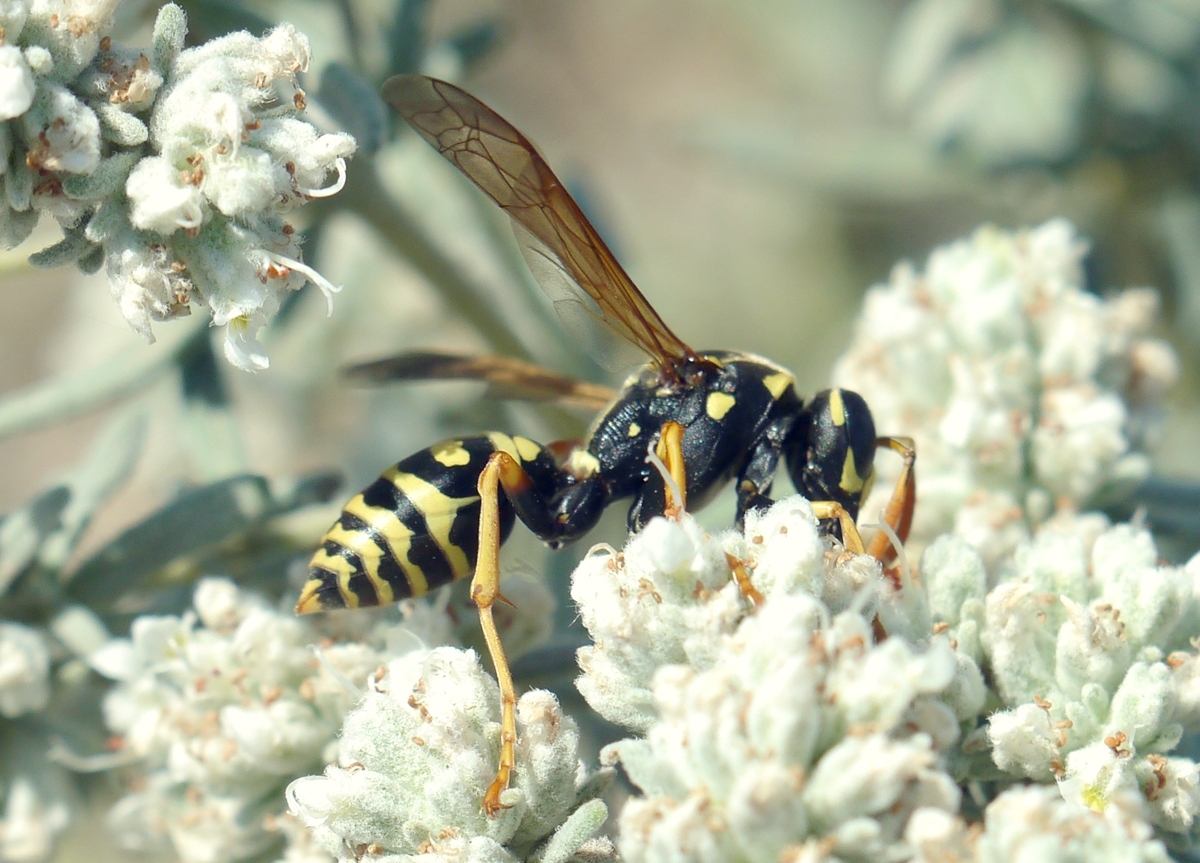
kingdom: Animalia
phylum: Arthropoda
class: Insecta
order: Hymenoptera
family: Eumenidae
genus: Polistes
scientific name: Polistes dominula
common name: Paper wasp
